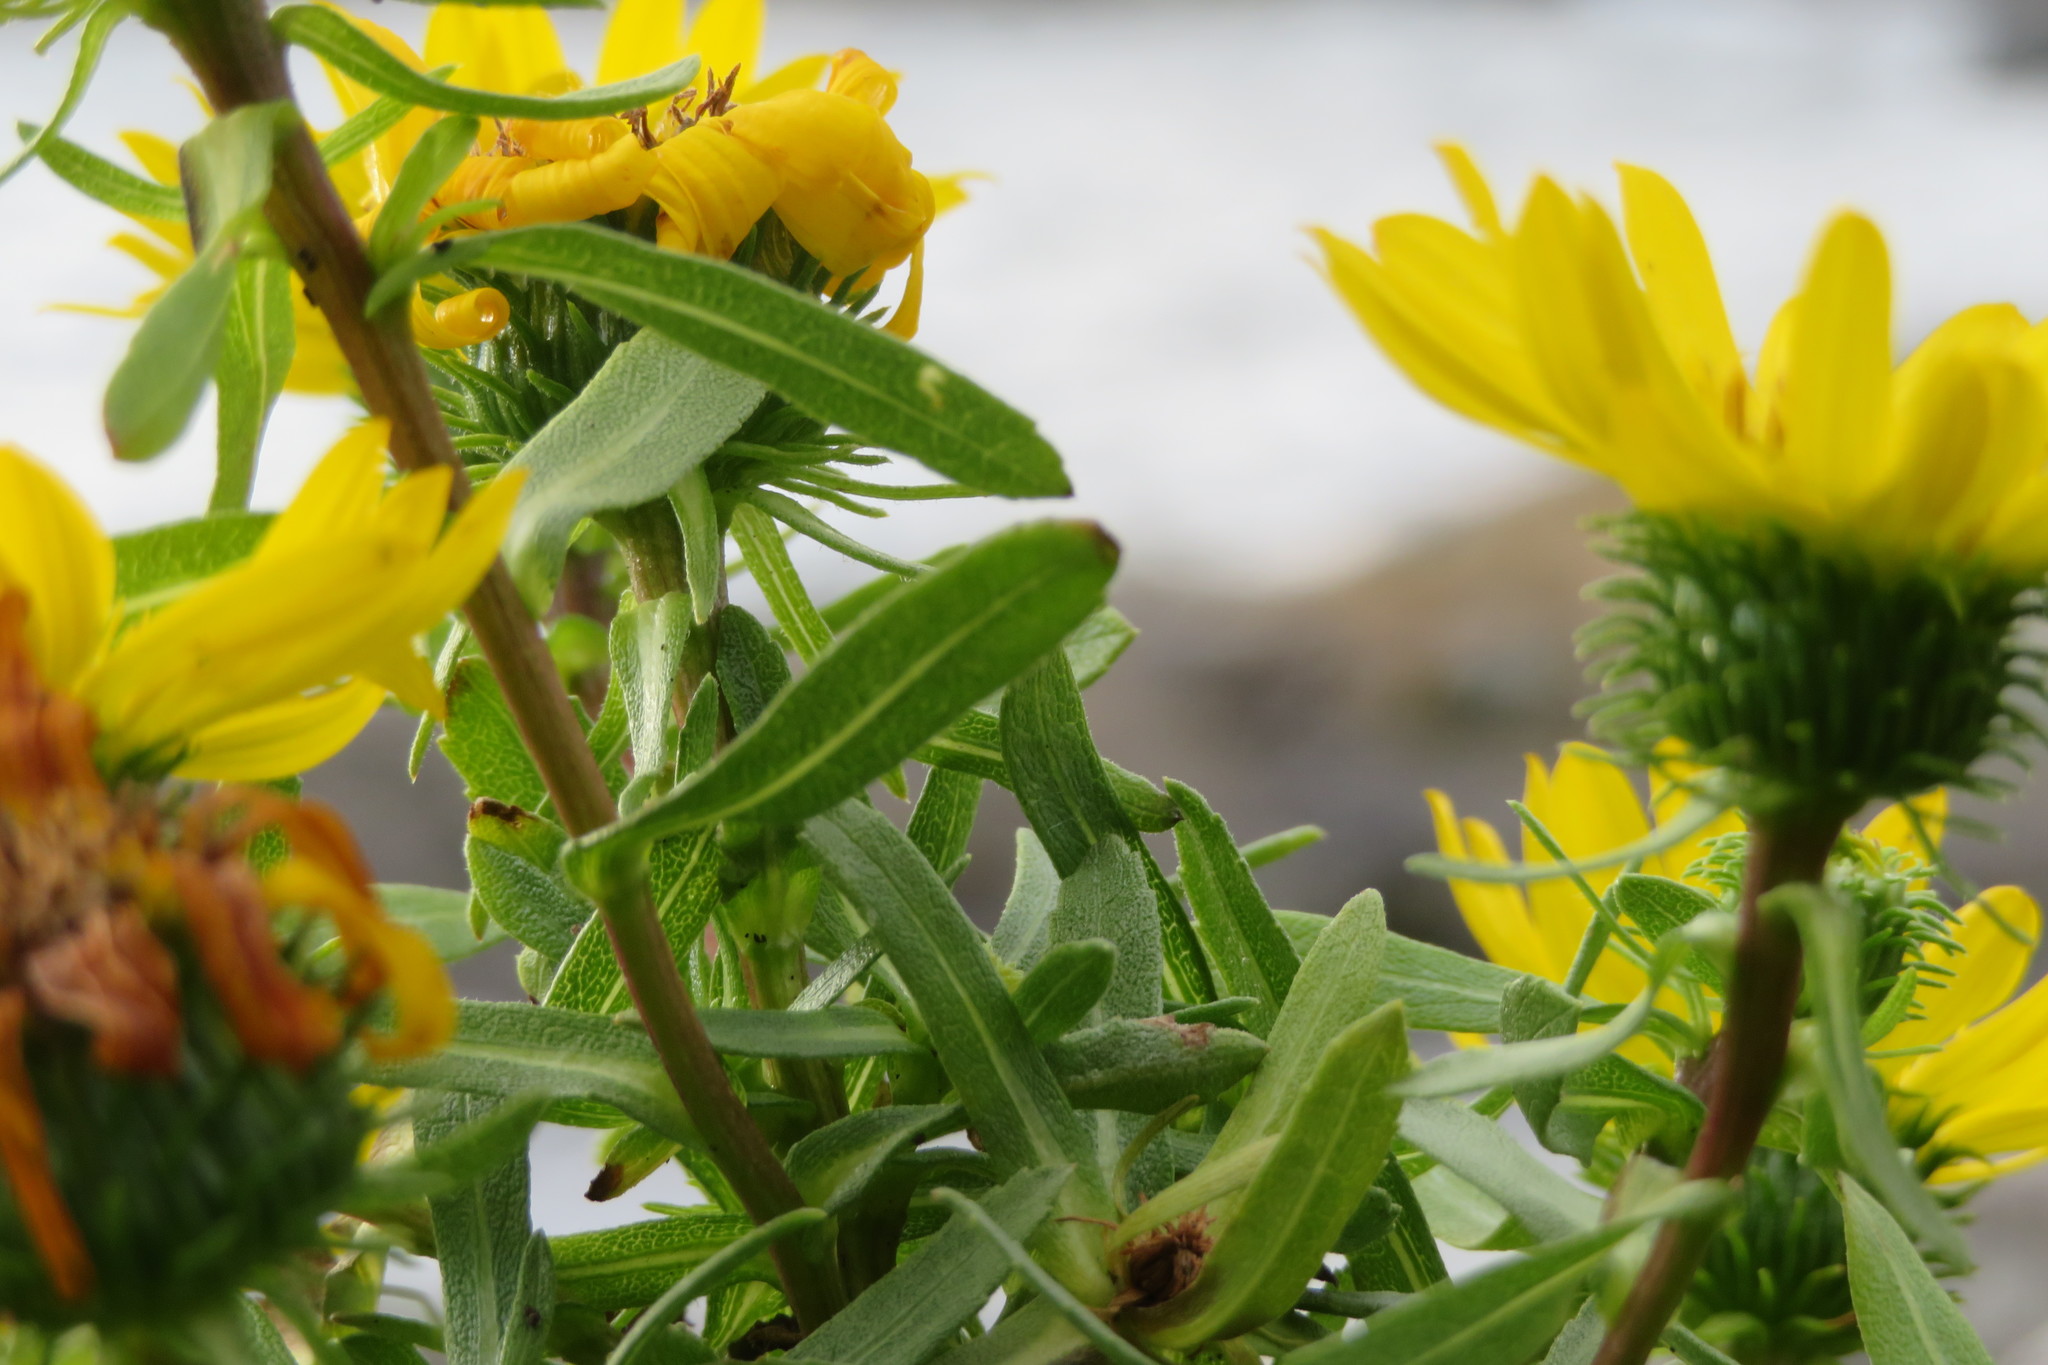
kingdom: Plantae
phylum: Tracheophyta
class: Magnoliopsida
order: Asterales
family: Asteraceae
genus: Grindelia
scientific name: Grindelia hirsutula
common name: Hairy gumweed
